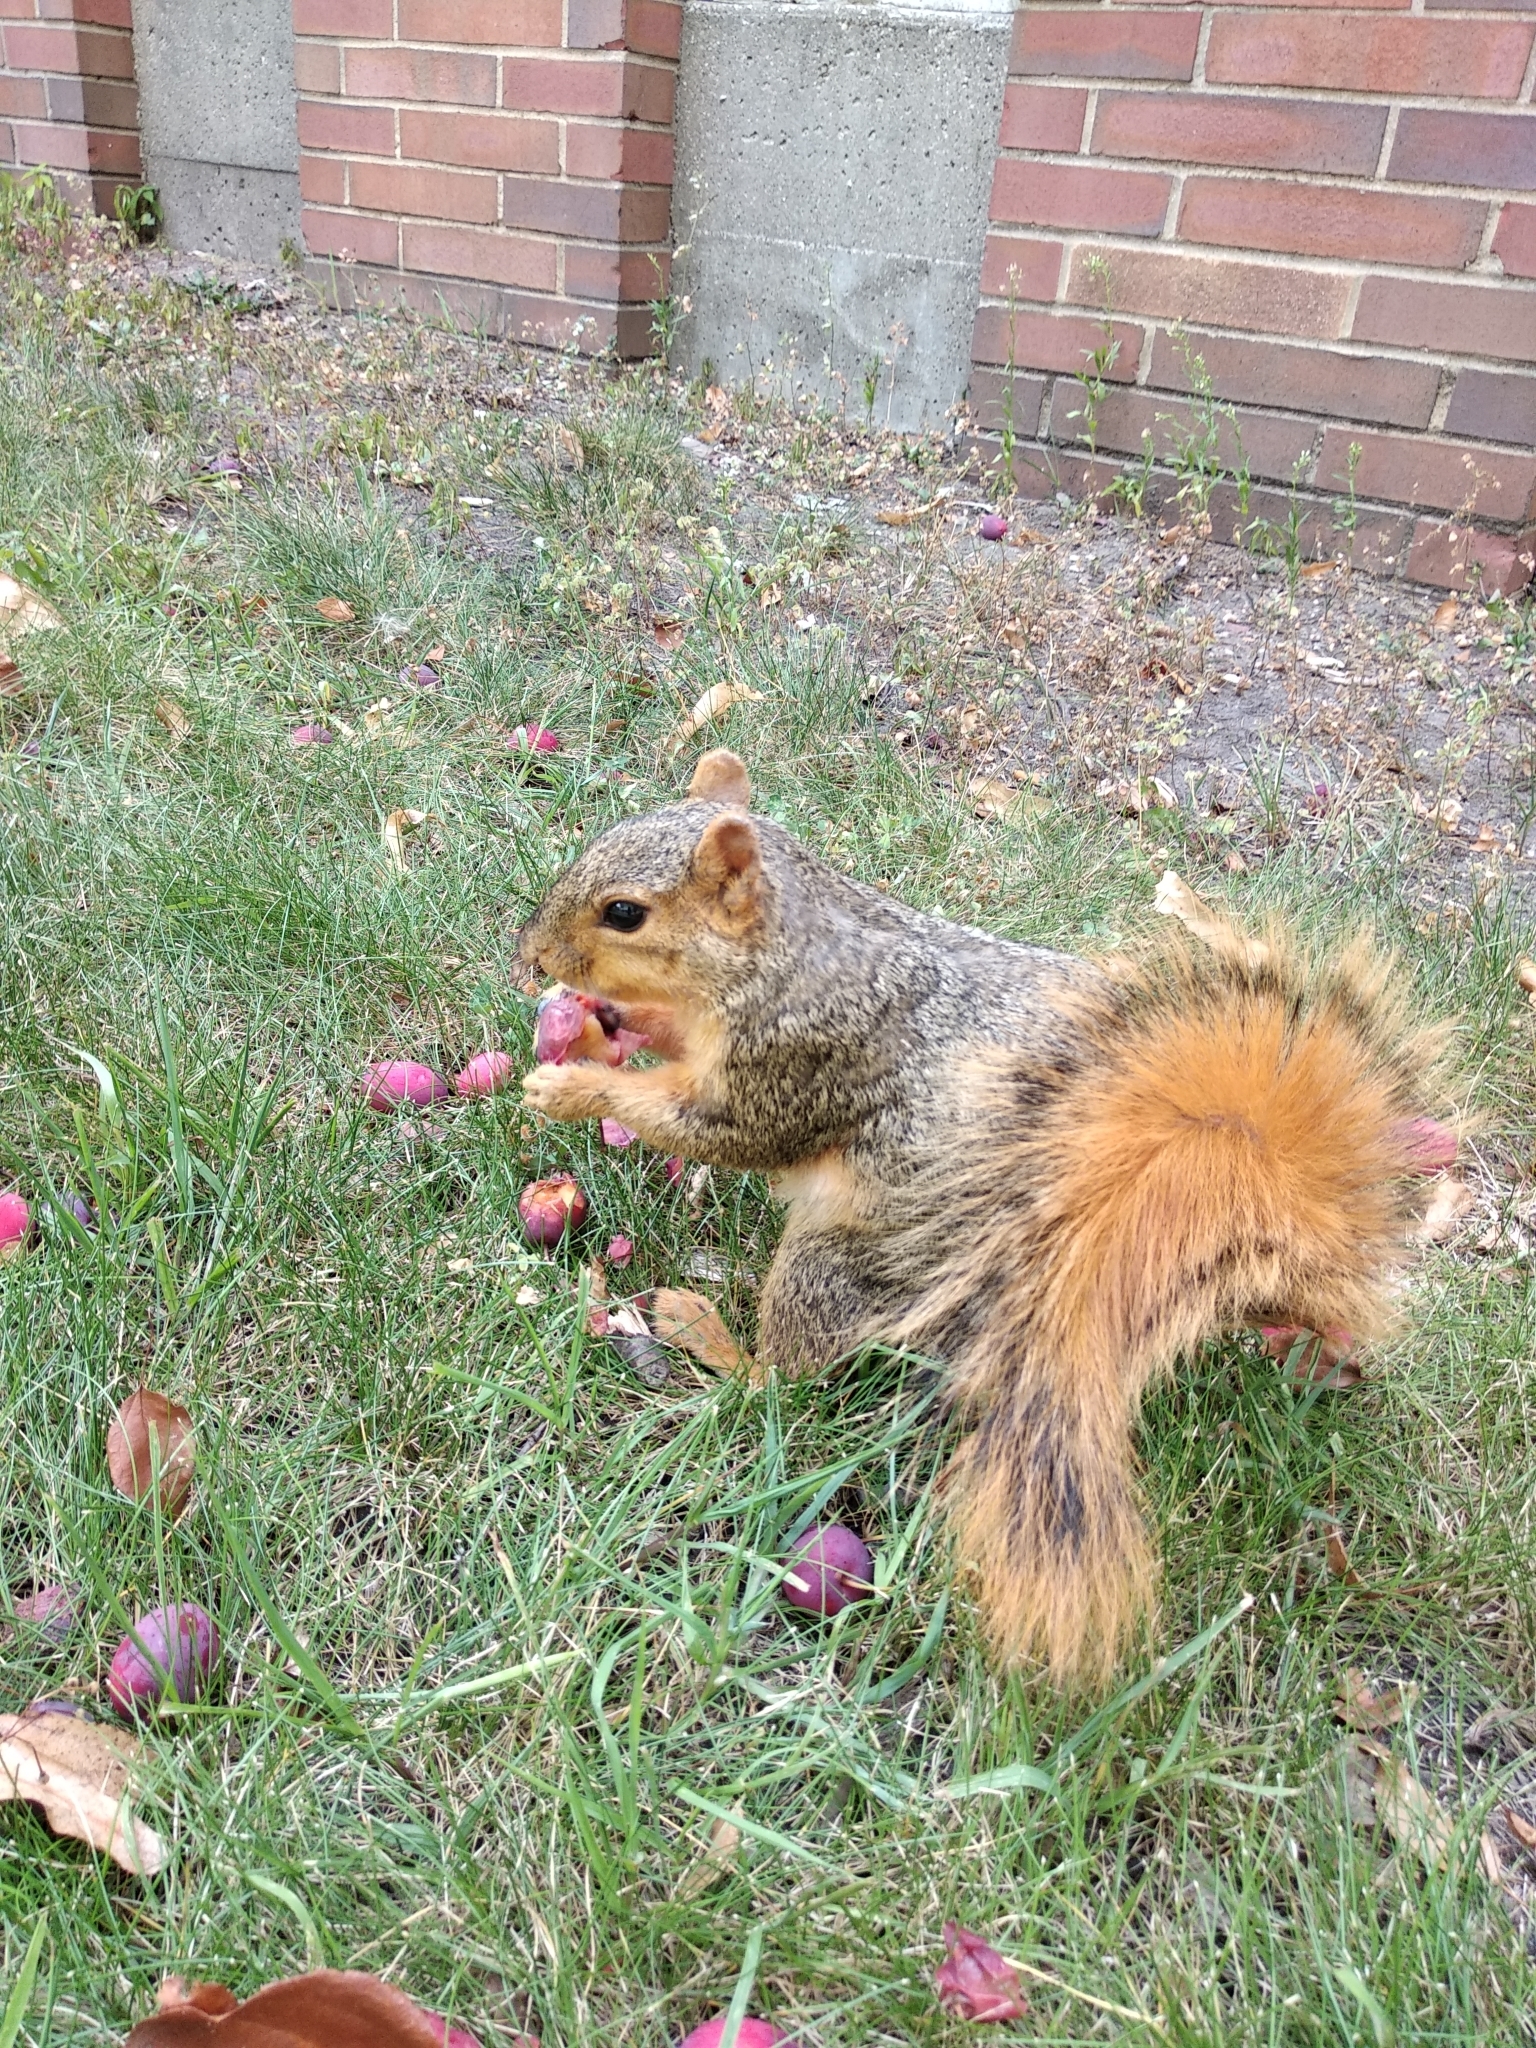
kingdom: Animalia
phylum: Chordata
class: Mammalia
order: Rodentia
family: Sciuridae
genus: Sciurus
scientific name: Sciurus niger
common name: Fox squirrel
